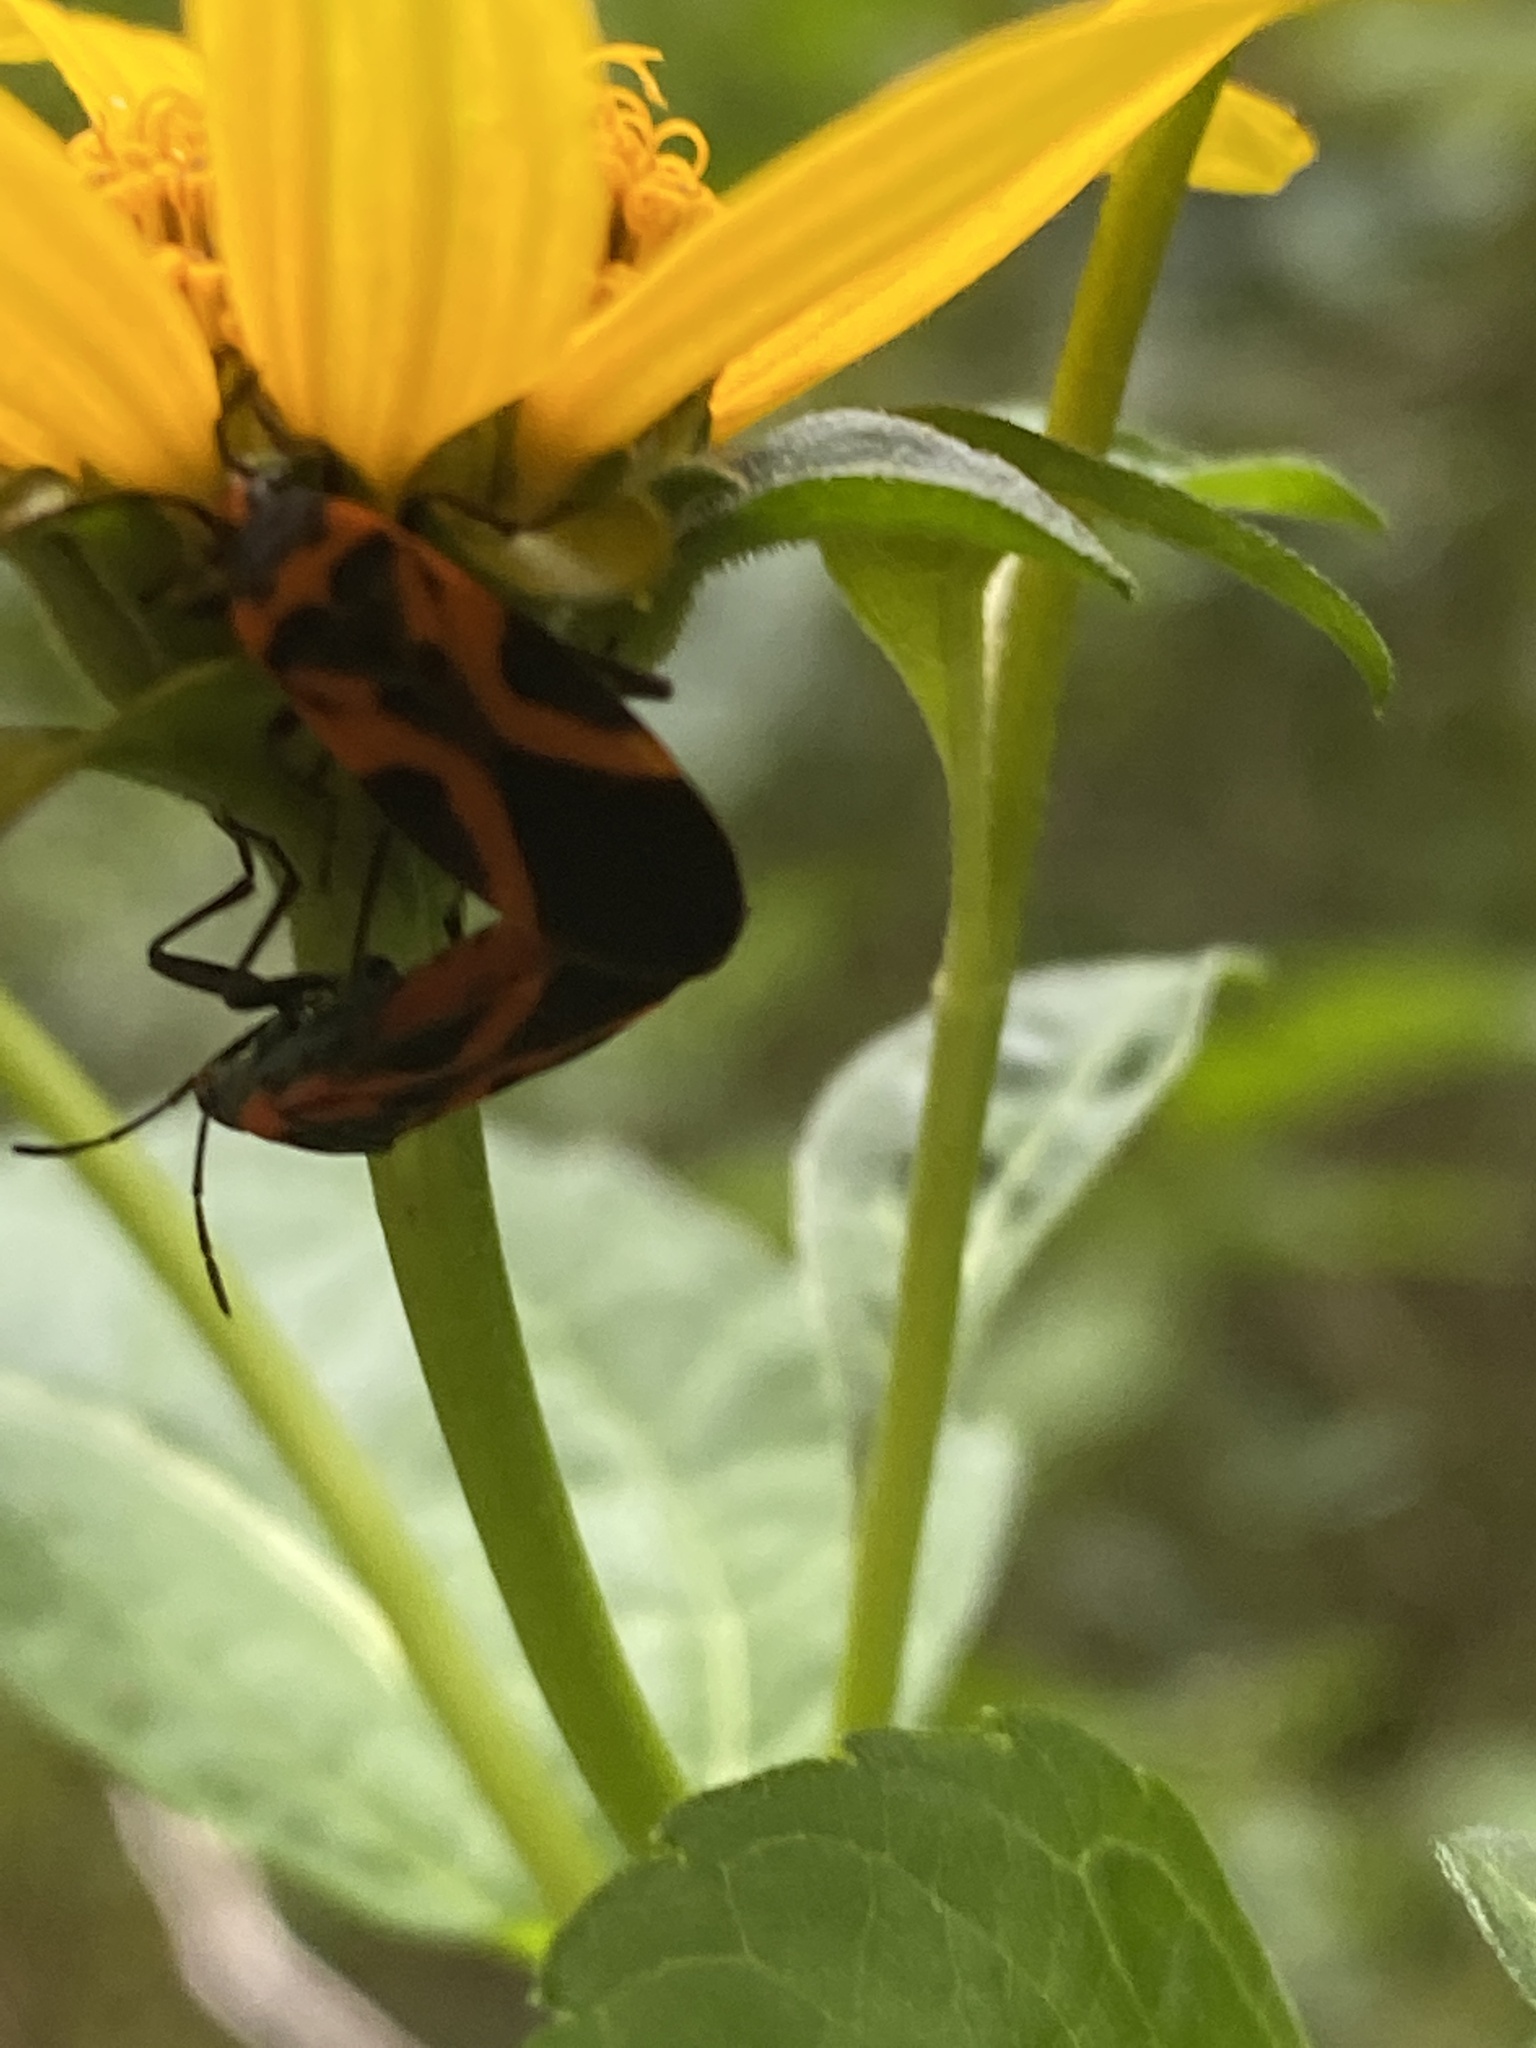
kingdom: Animalia
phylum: Arthropoda
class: Insecta
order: Hemiptera
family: Lygaeidae
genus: Lygaeus
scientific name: Lygaeus turcicus
